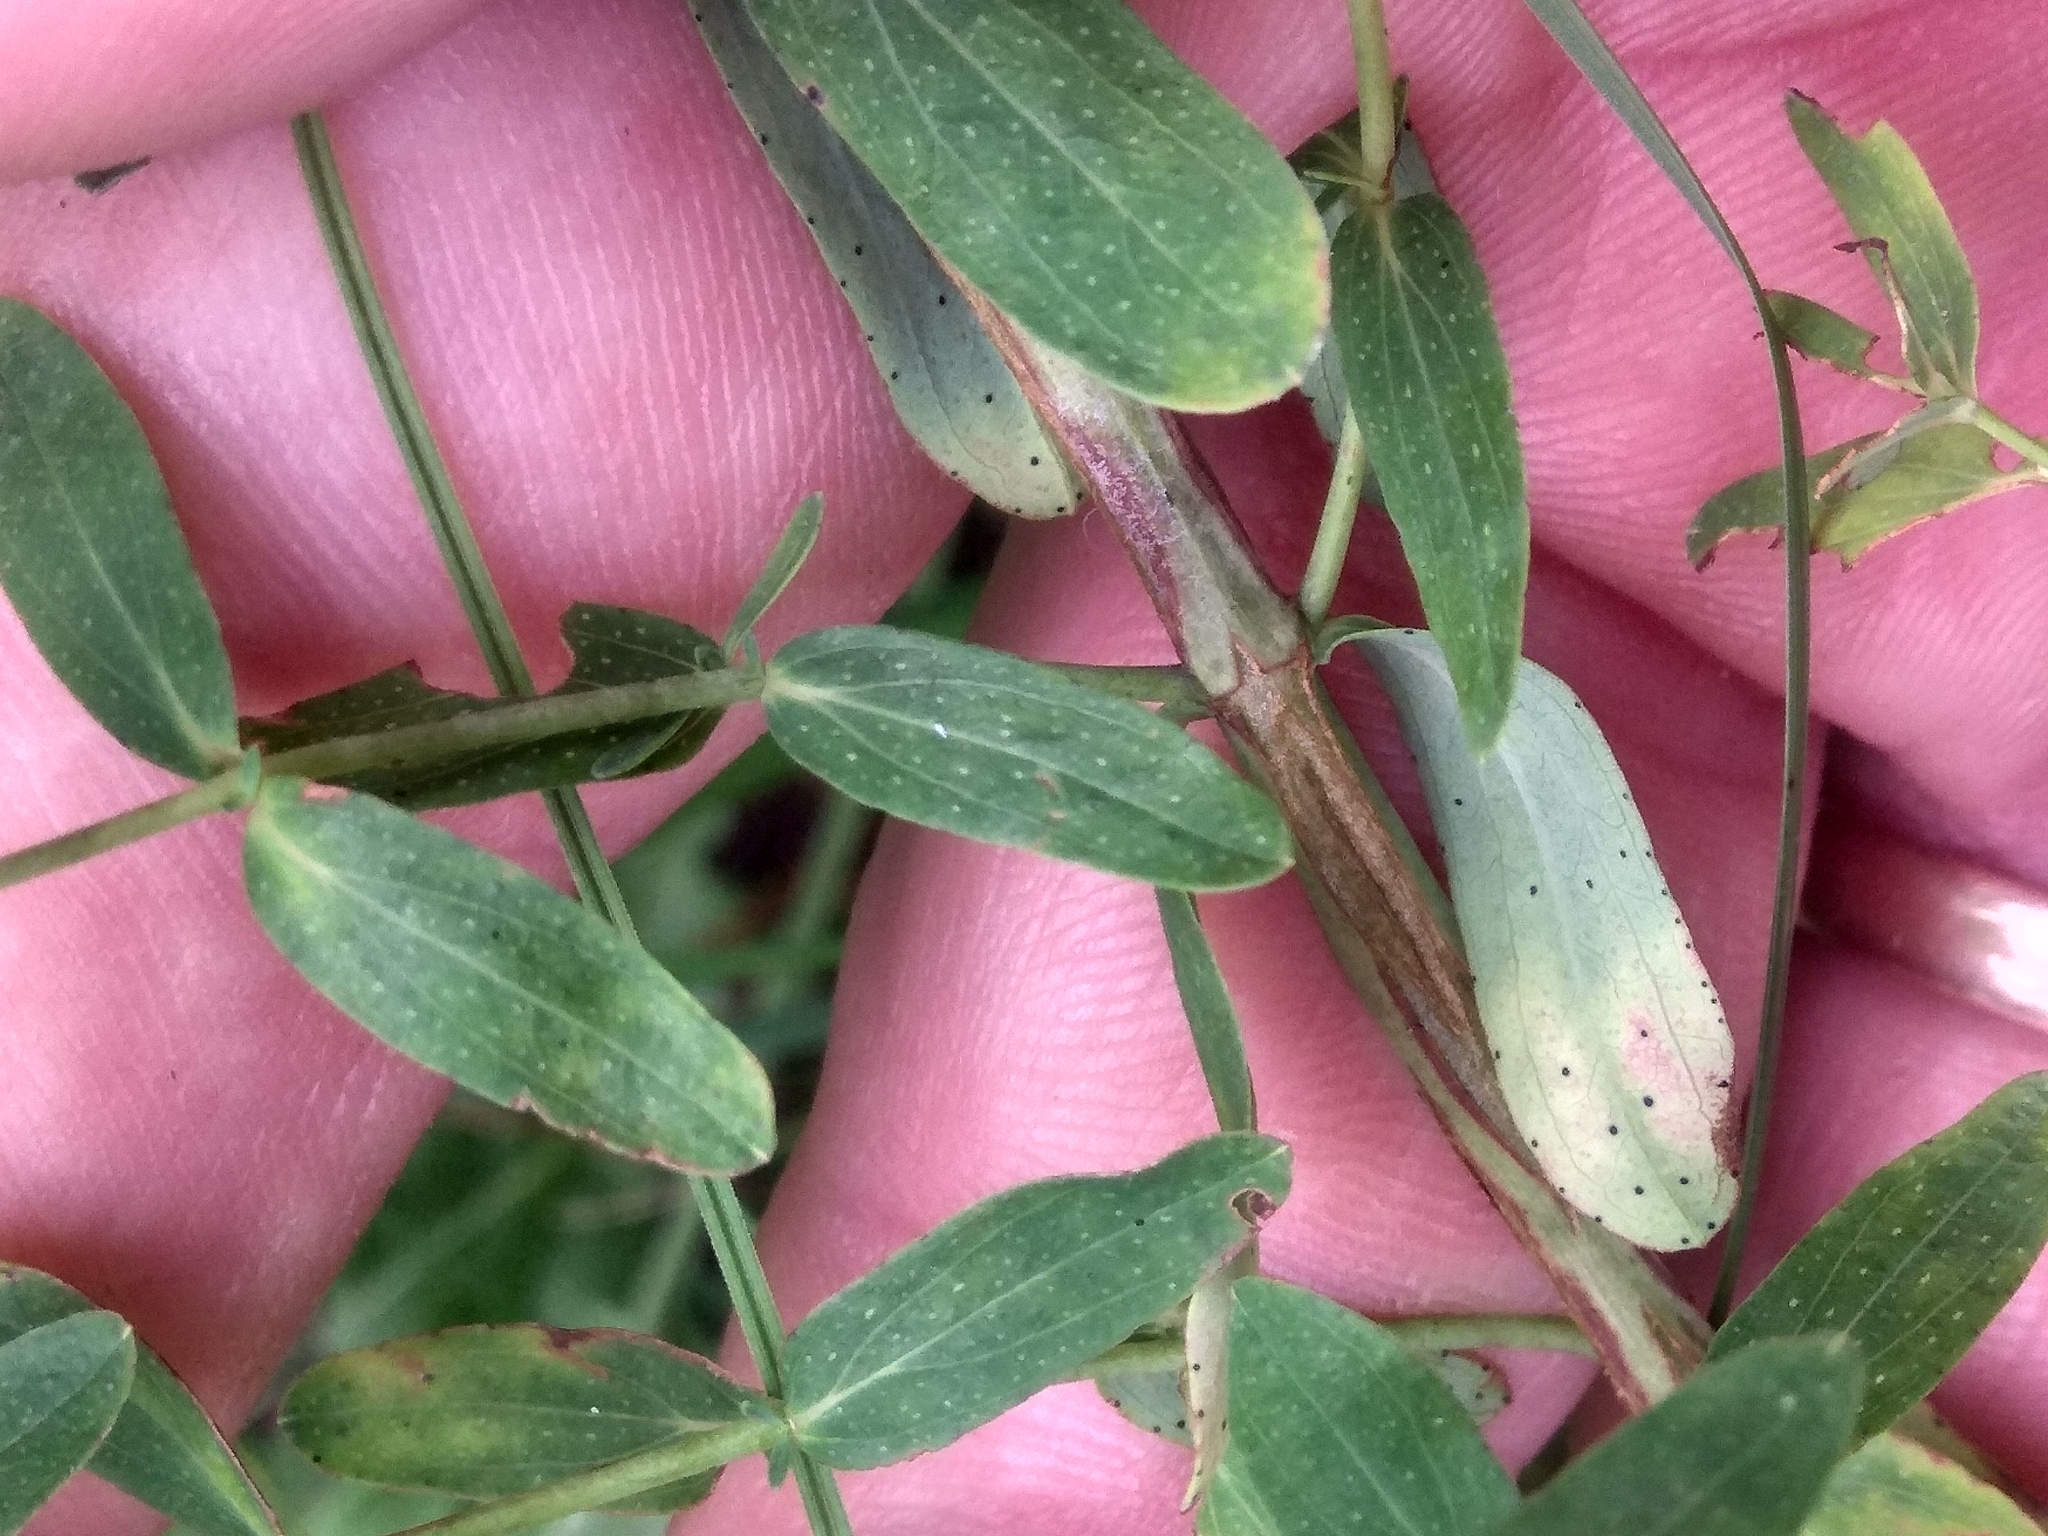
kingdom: Plantae
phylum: Tracheophyta
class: Magnoliopsida
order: Malpighiales
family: Hypericaceae
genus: Hypericum
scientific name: Hypericum perforatum
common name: Common st. johnswort
